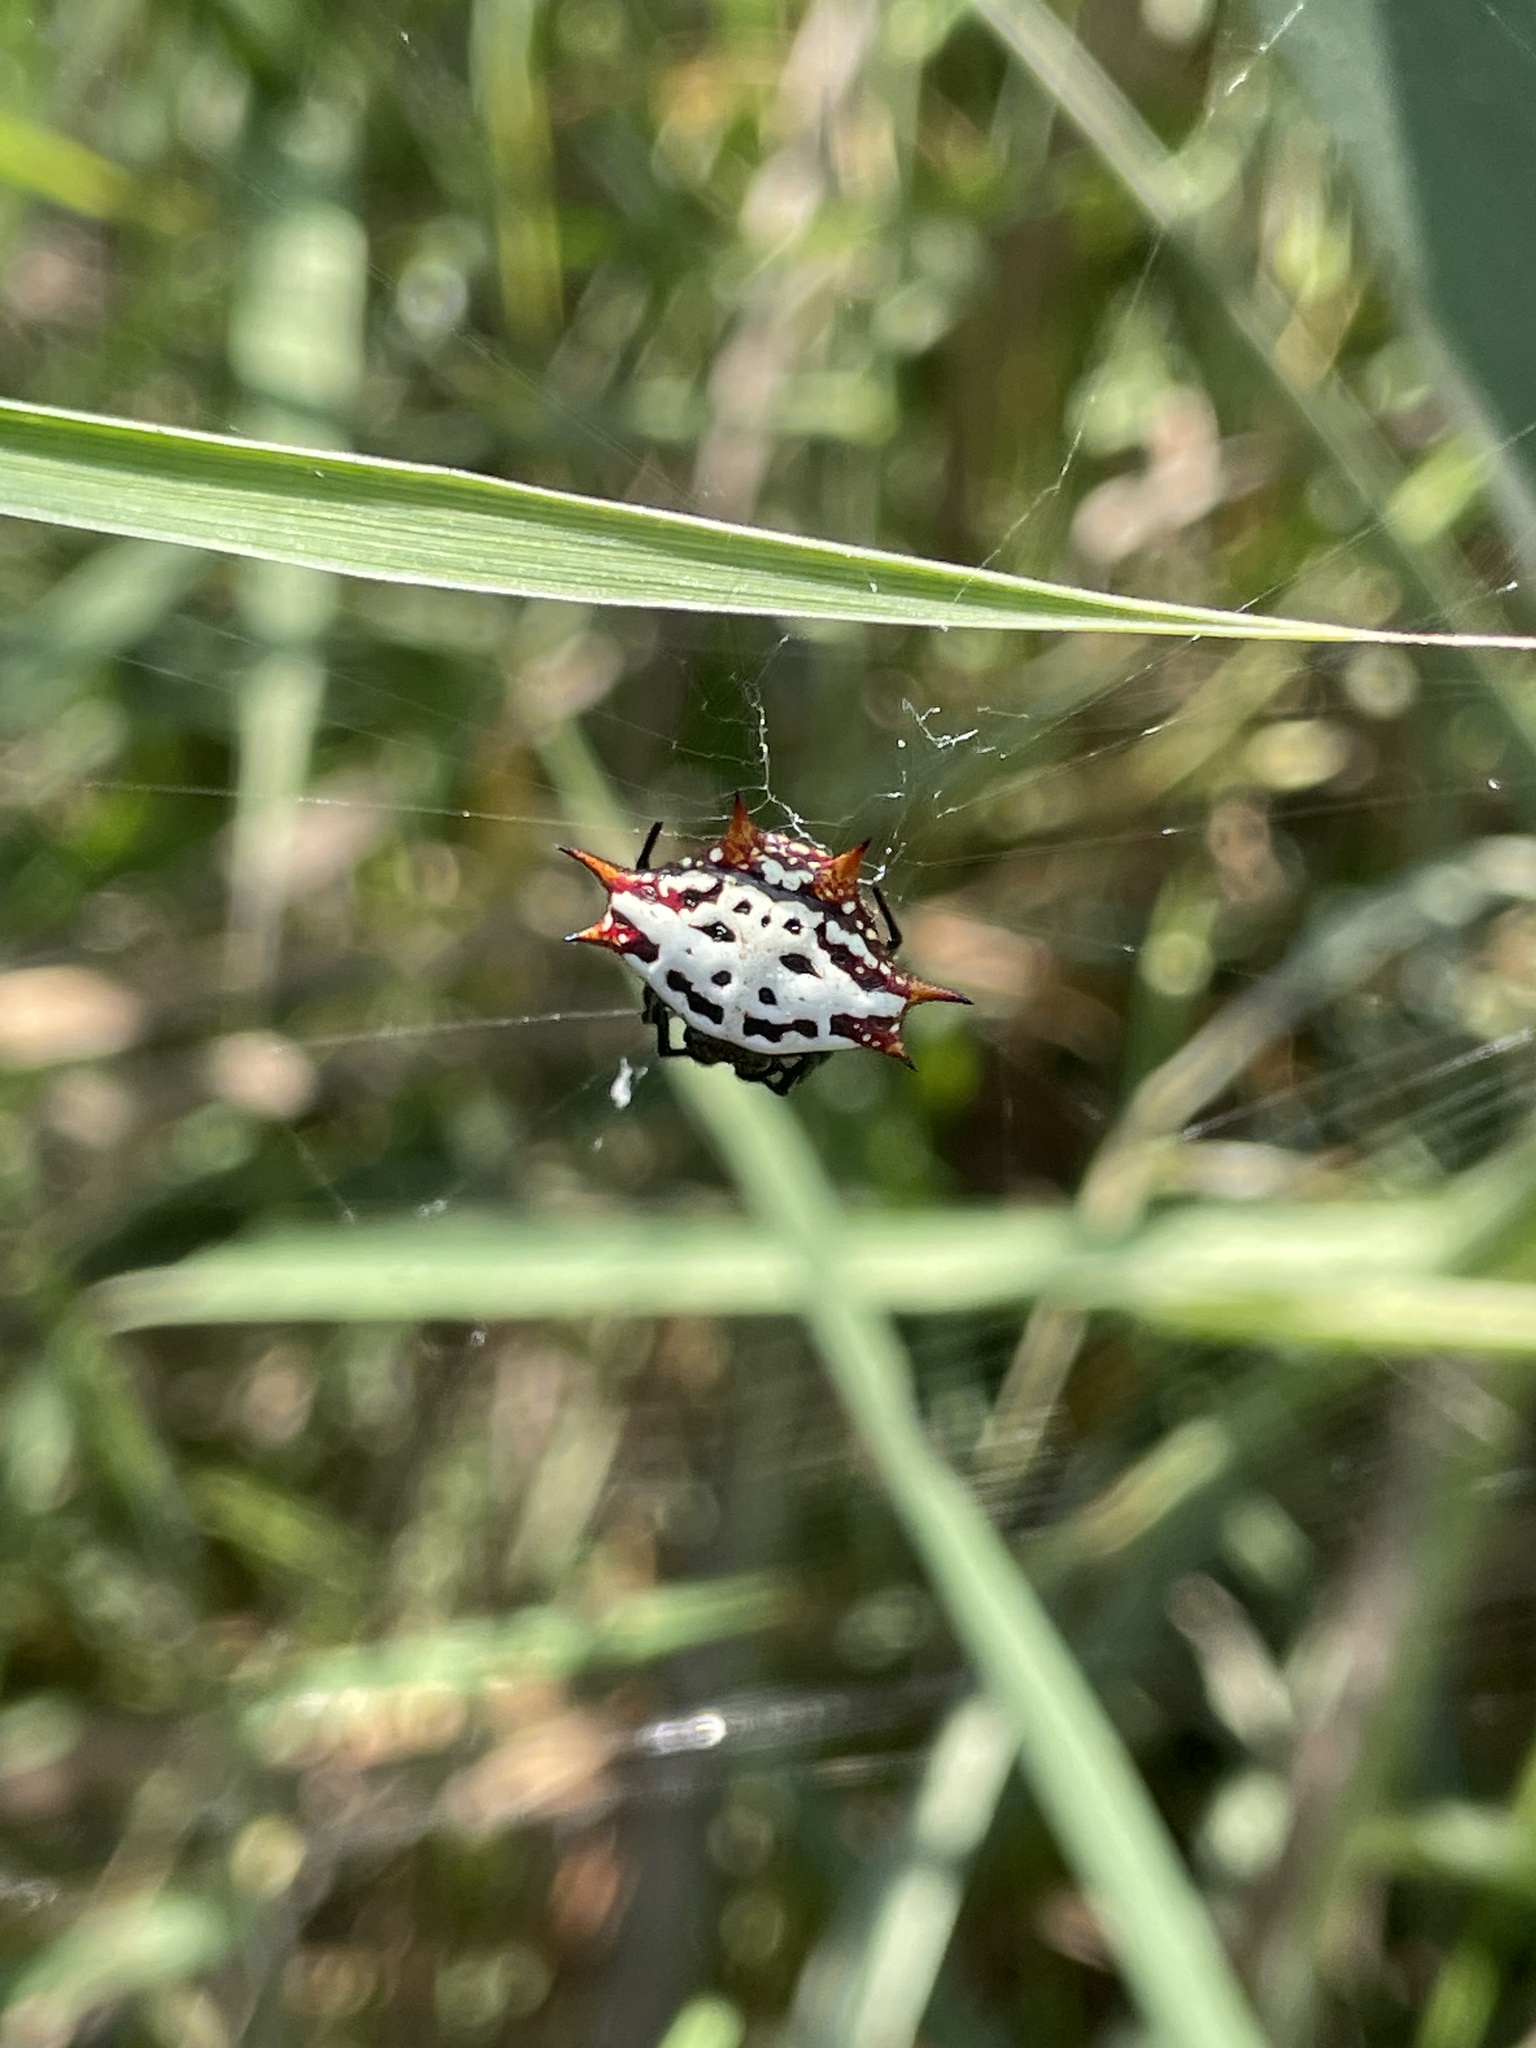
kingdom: Animalia
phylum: Arthropoda
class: Arachnida
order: Araneae
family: Araneidae
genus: Gasteracantha
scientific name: Gasteracantha cancriformis
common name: Orb weavers
